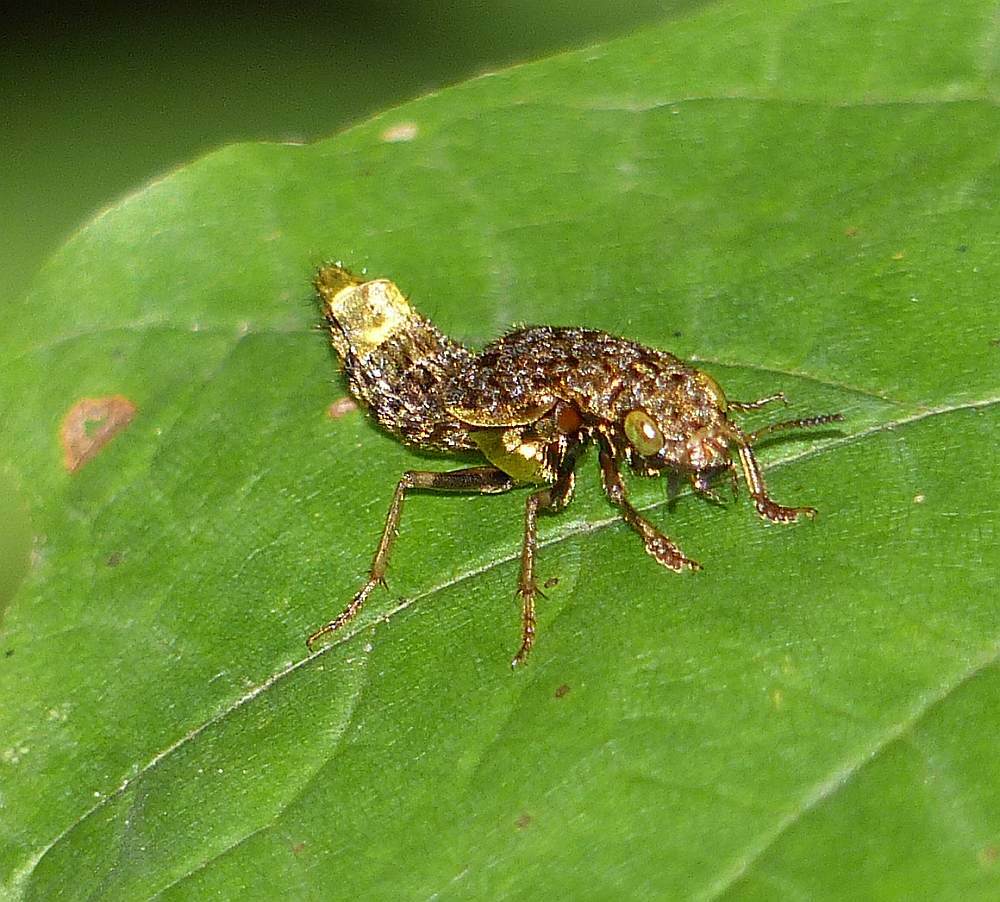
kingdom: Animalia
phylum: Arthropoda
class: Insecta
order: Coleoptera
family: Staphylinidae
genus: Ontholestes
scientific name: Ontholestes cingulatus
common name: Gold-and-brown rove beetle
